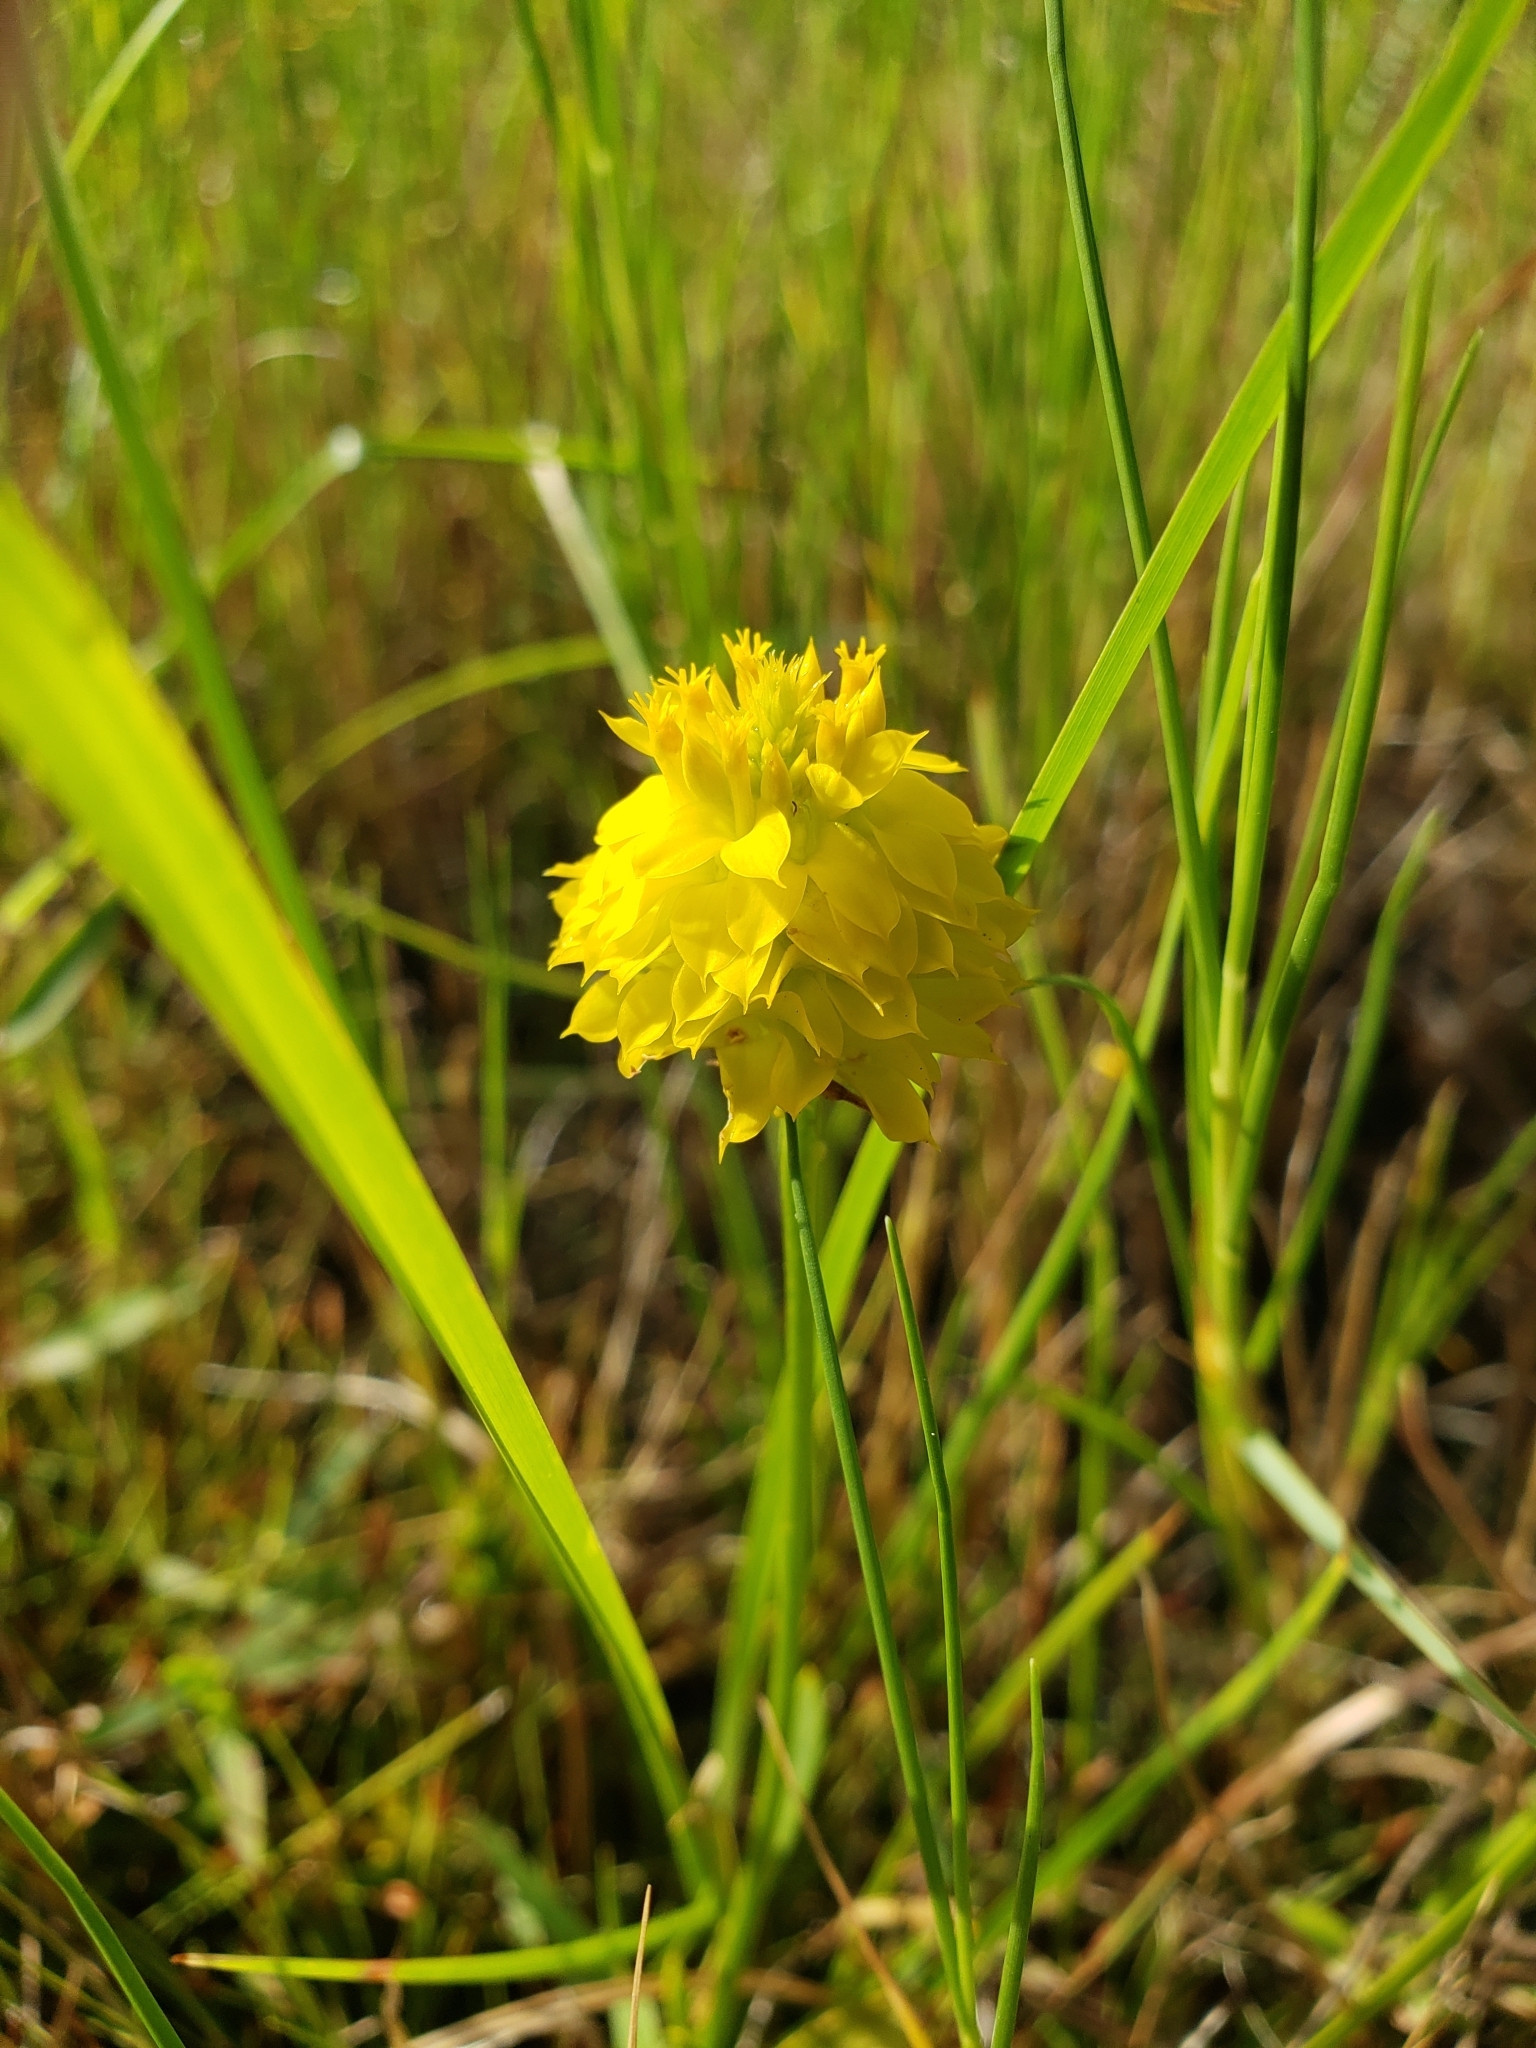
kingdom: Plantae
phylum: Tracheophyta
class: Magnoliopsida
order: Fabales
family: Polygalaceae
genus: Polygala
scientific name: Polygala rugelii
